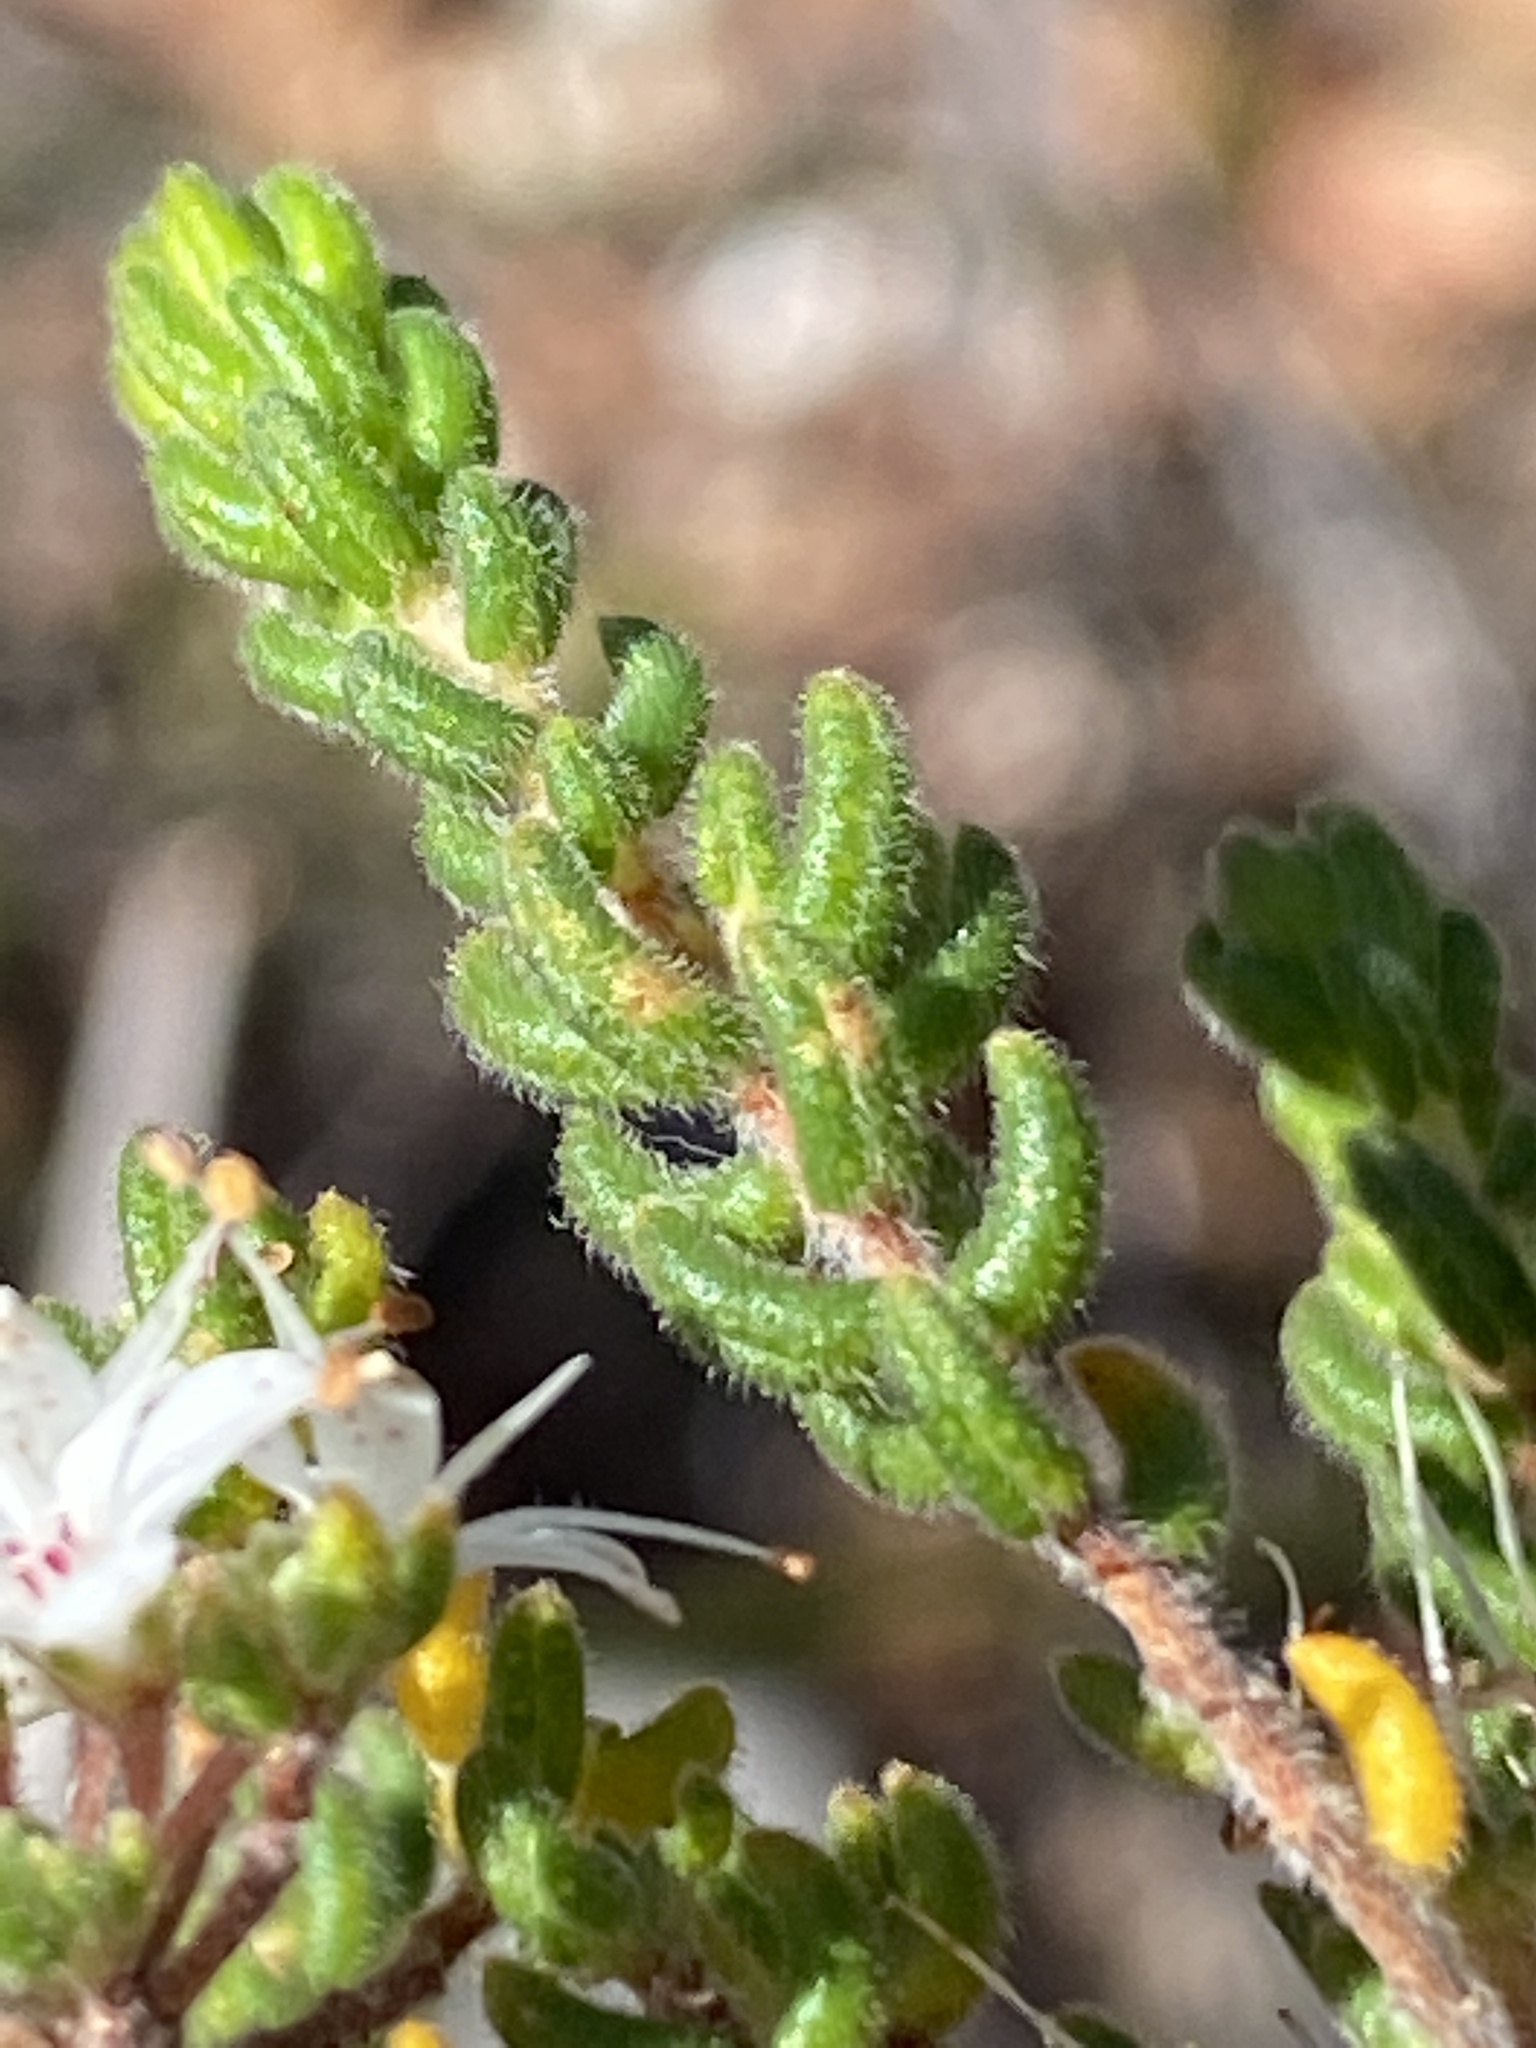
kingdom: Plantae
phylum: Tracheophyta
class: Magnoliopsida
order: Sapindales
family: Rutaceae
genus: Agathosma
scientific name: Agathosma blaerioides
